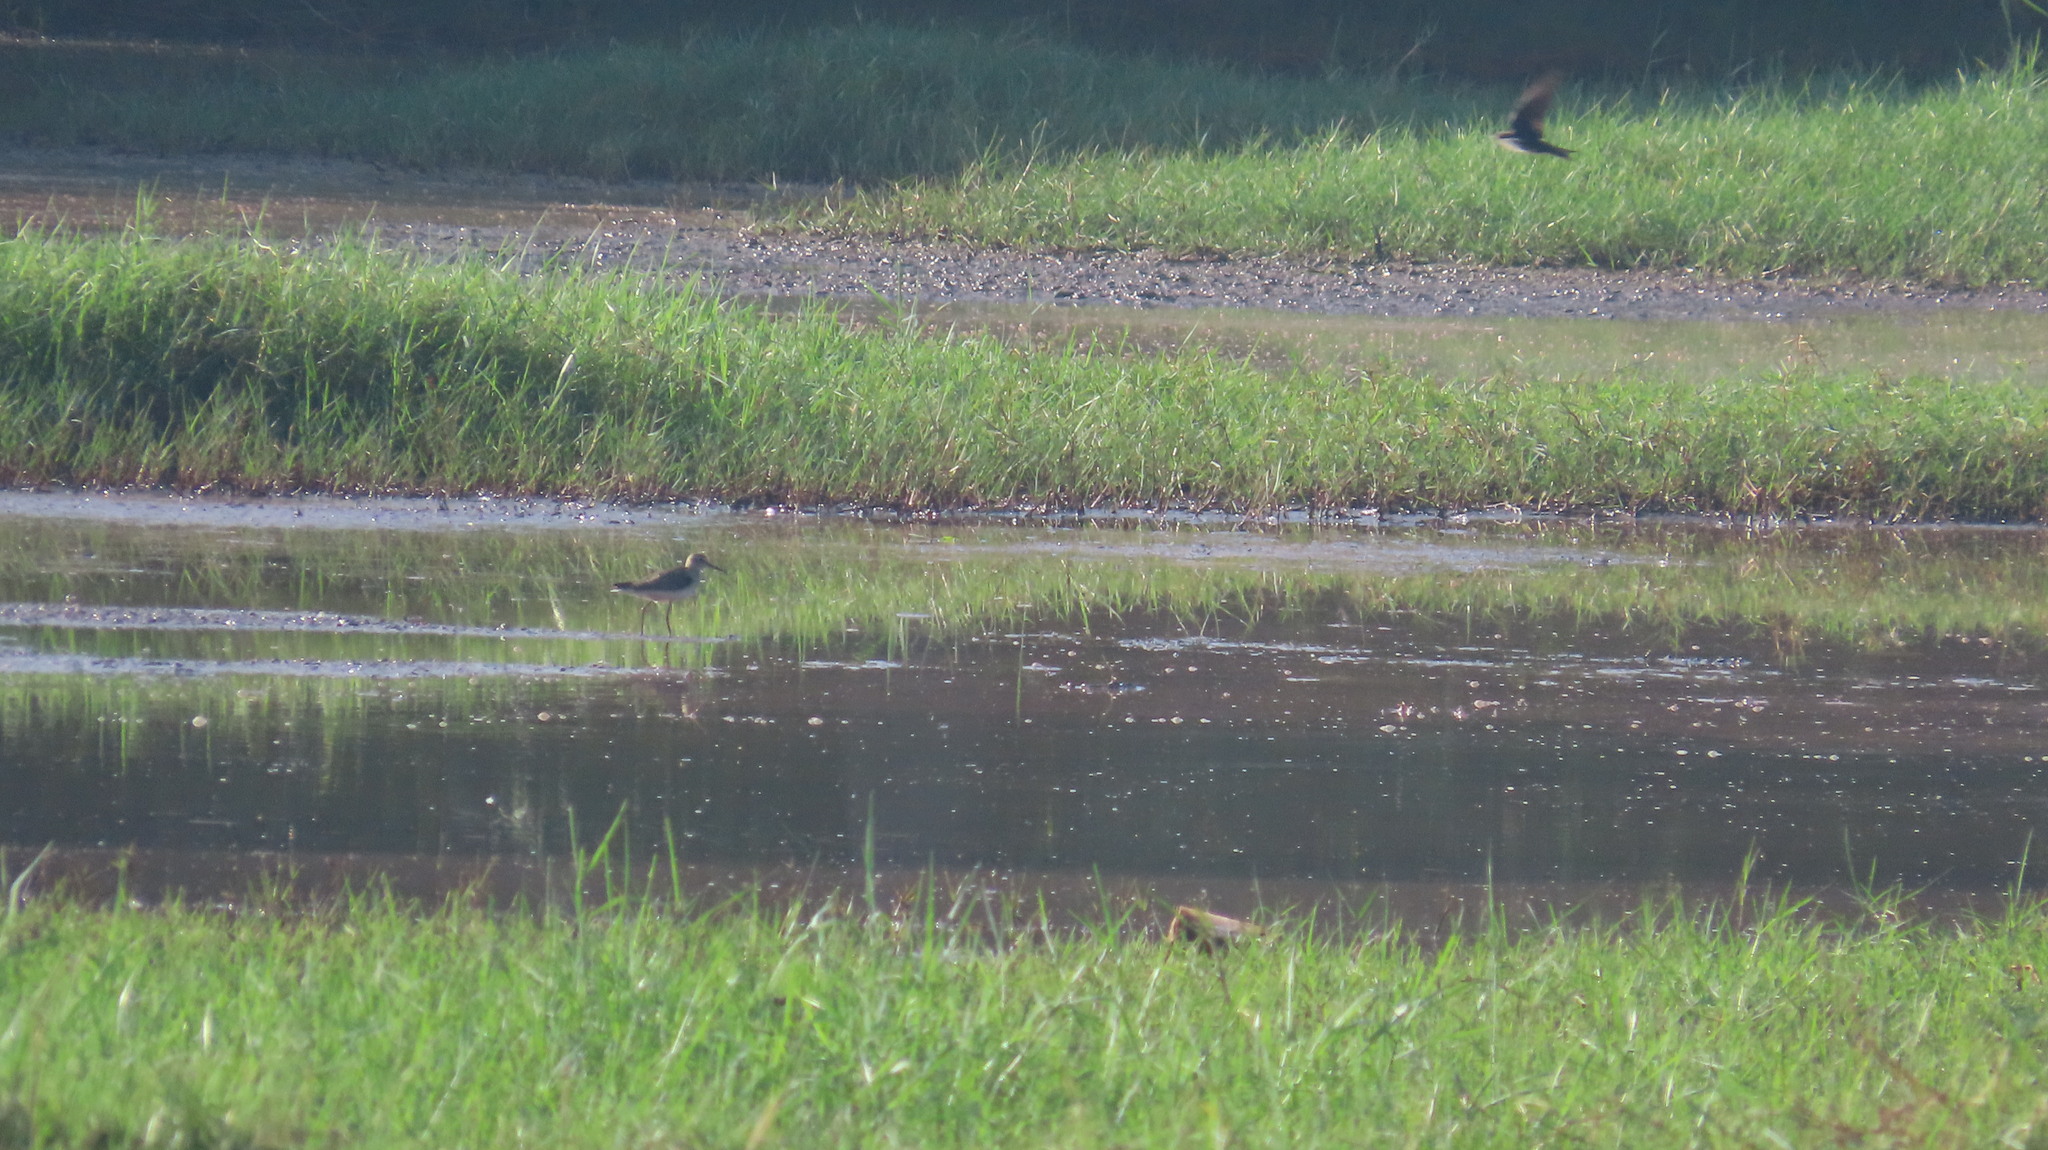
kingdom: Animalia
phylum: Chordata
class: Aves
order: Charadriiformes
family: Scolopacidae
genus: Tringa
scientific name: Tringa glareola
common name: Wood sandpiper
